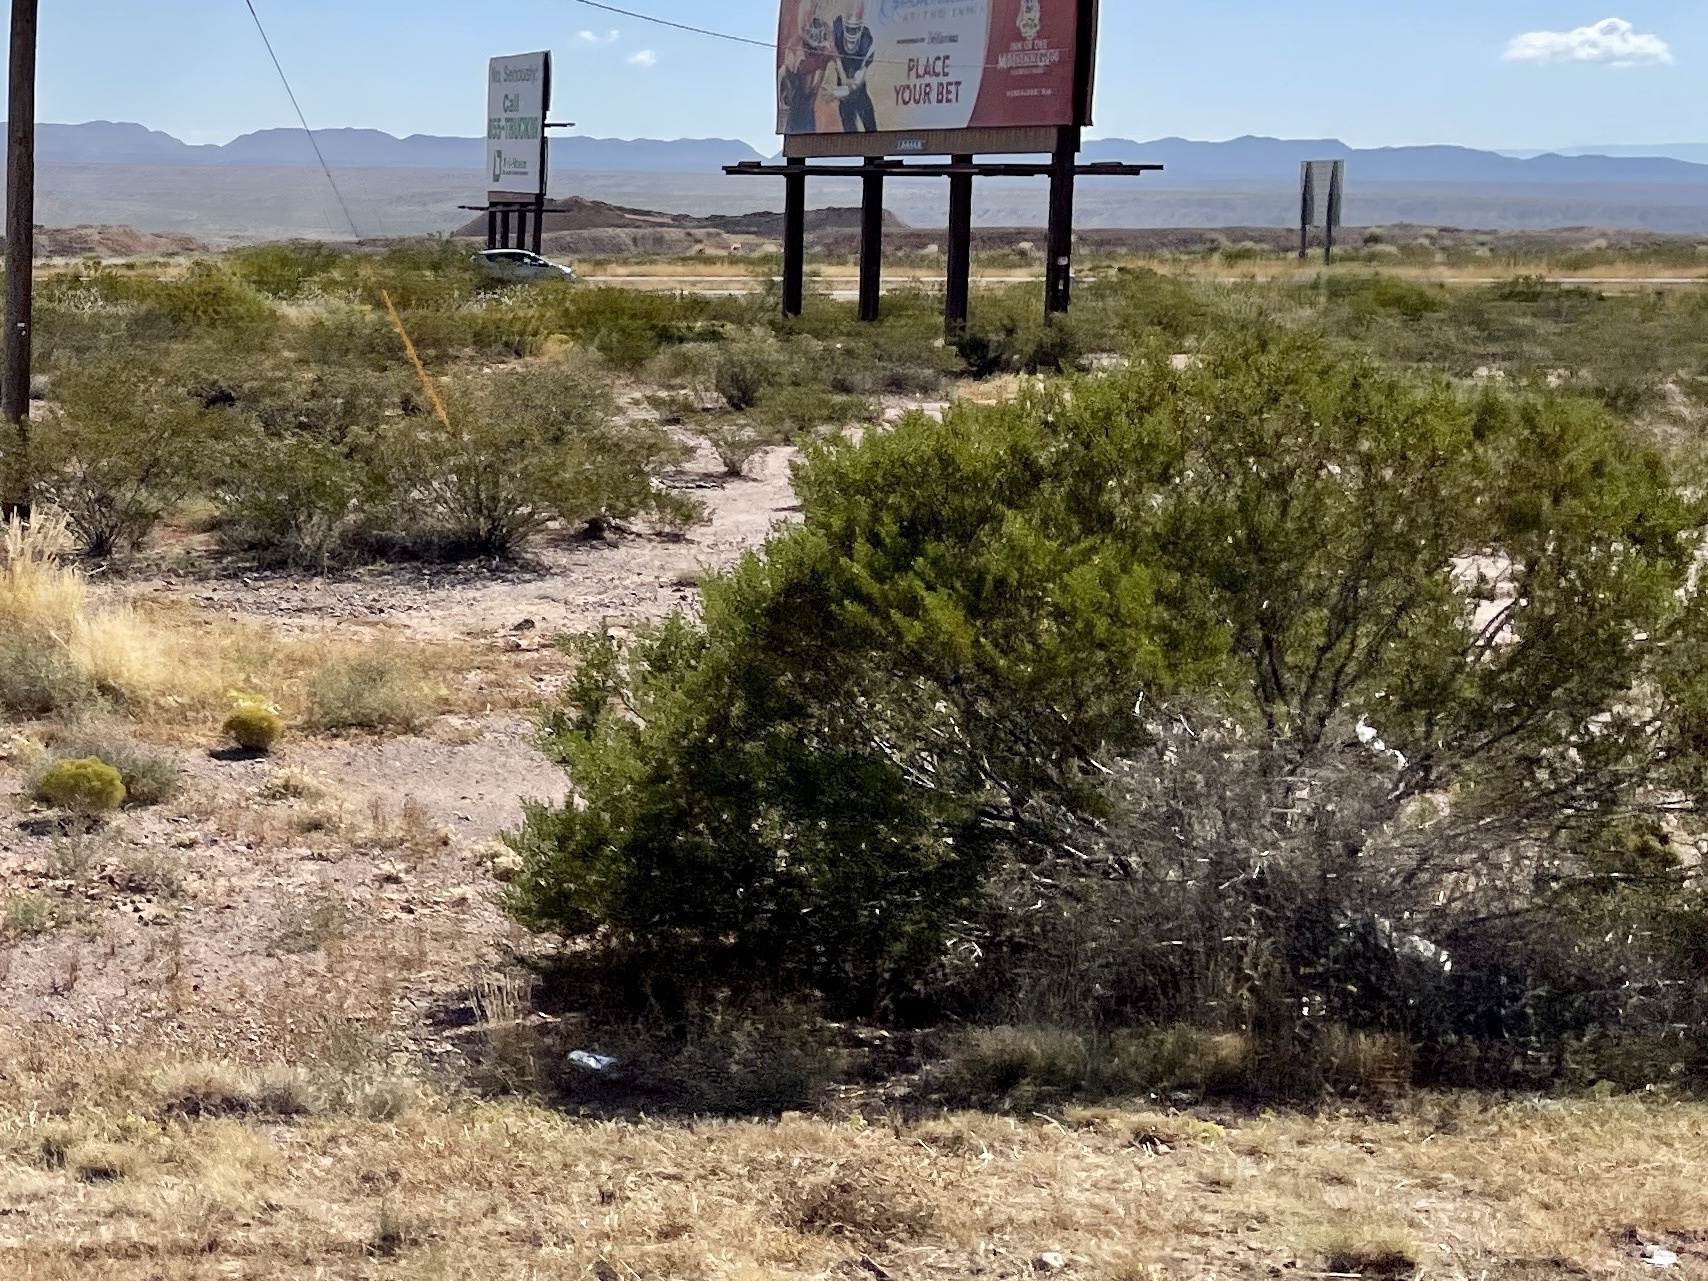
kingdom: Plantae
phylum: Tracheophyta
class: Magnoliopsida
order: Zygophyllales
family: Zygophyllaceae
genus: Larrea
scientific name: Larrea tridentata
